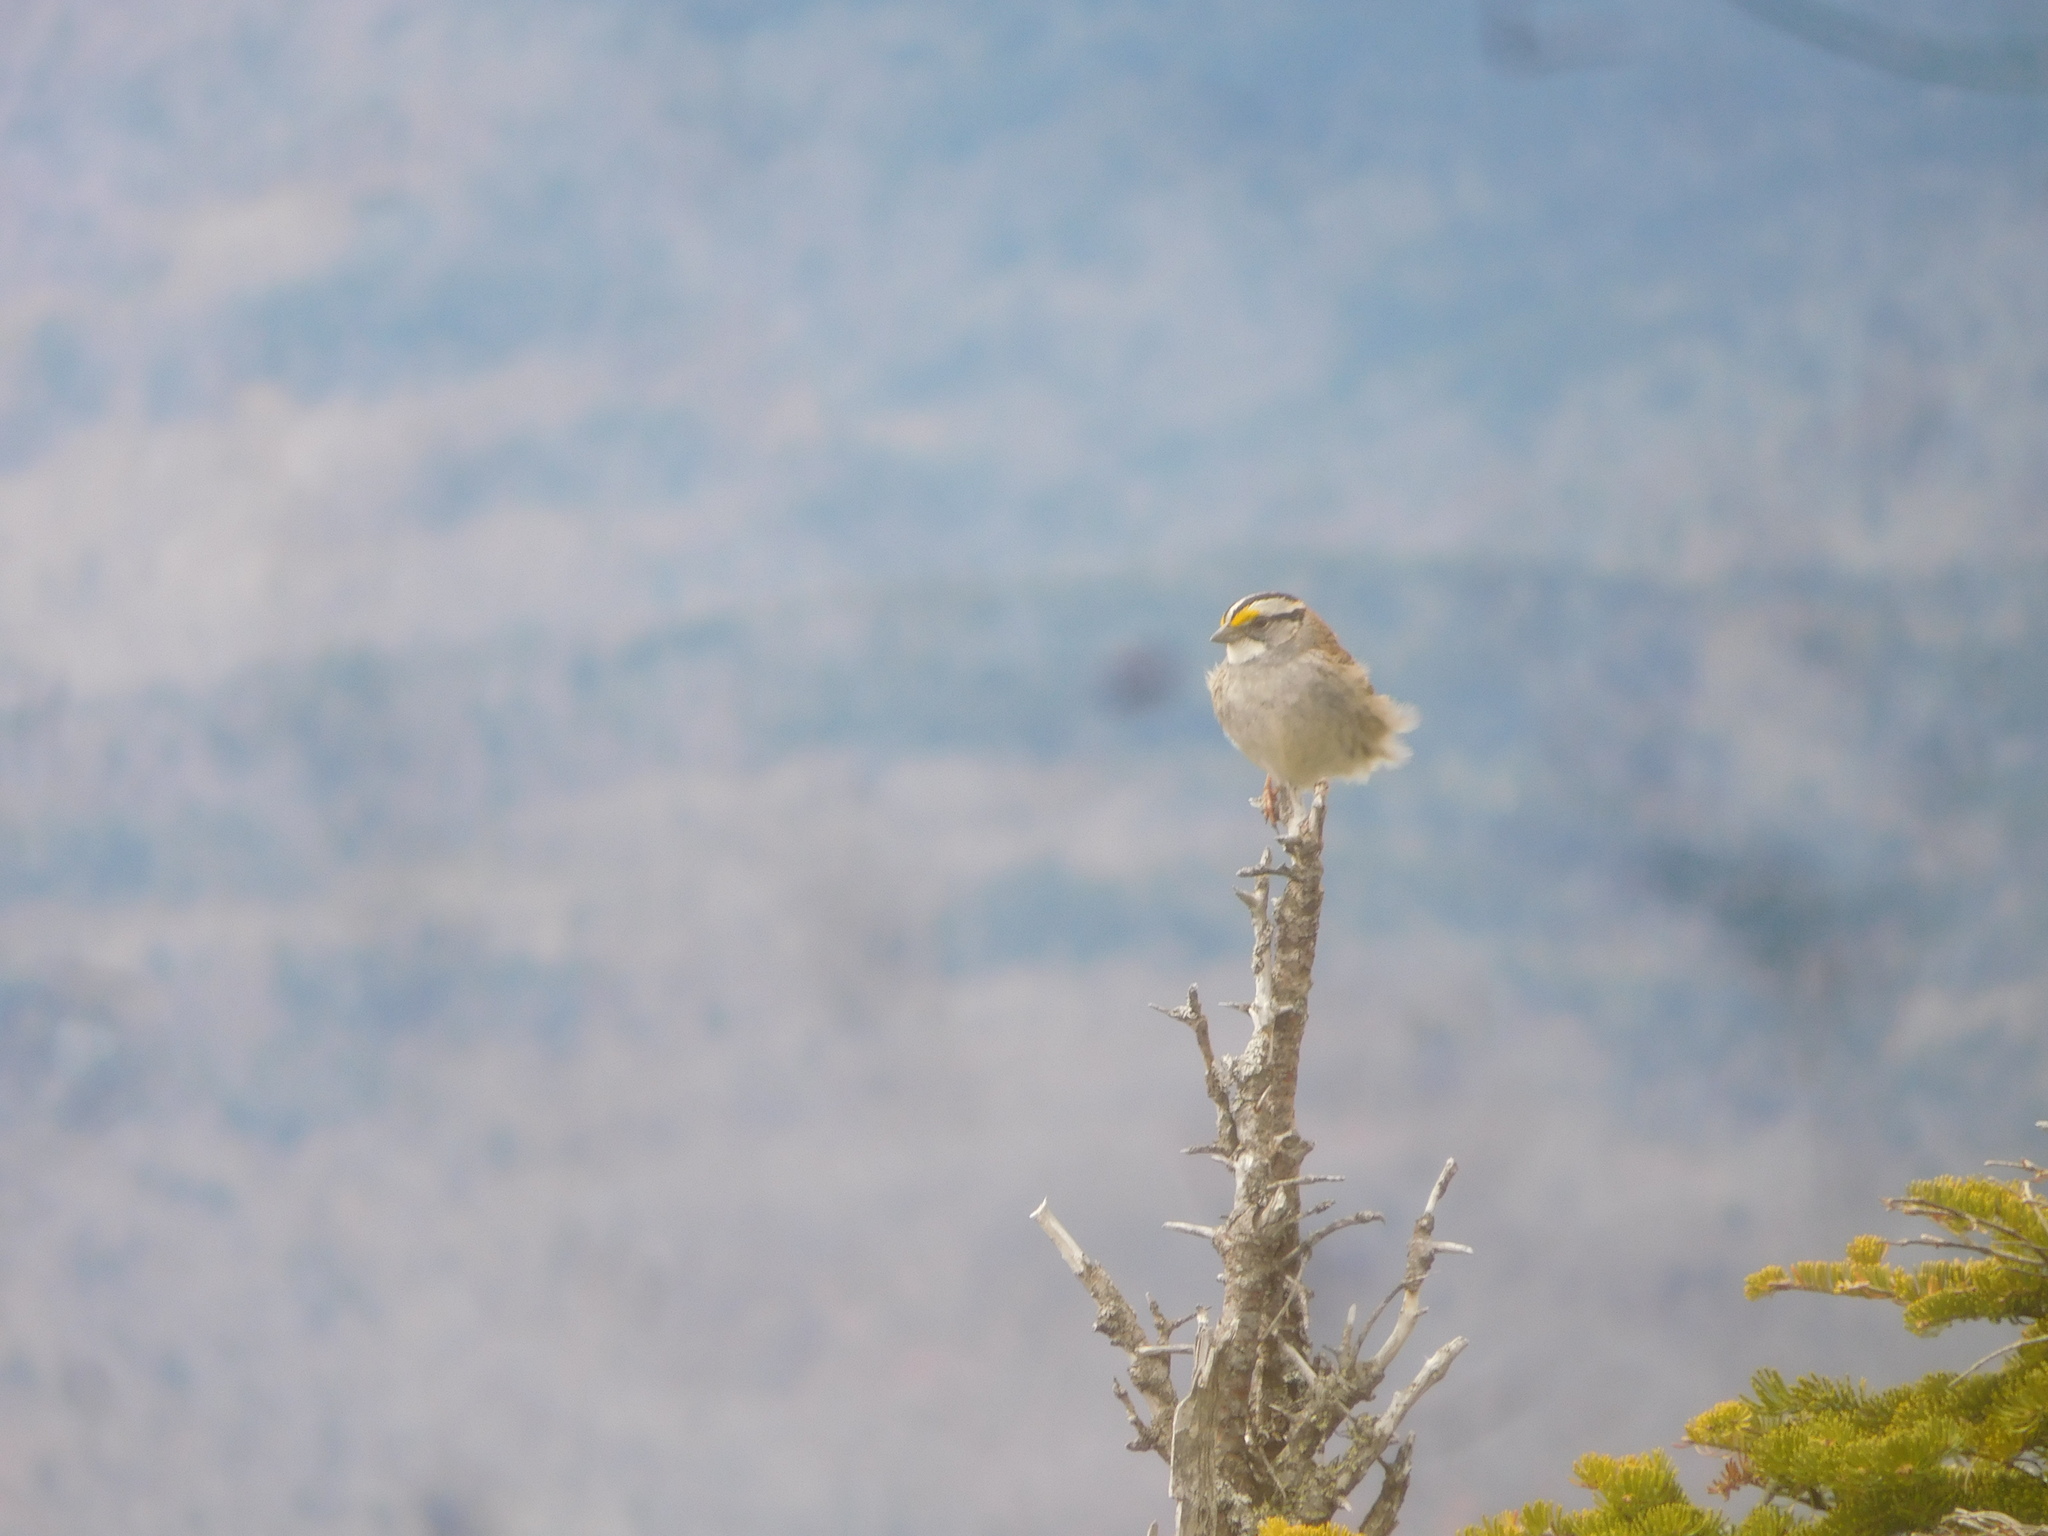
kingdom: Animalia
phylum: Chordata
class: Aves
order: Passeriformes
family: Passerellidae
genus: Zonotrichia
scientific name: Zonotrichia albicollis
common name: White-throated sparrow
